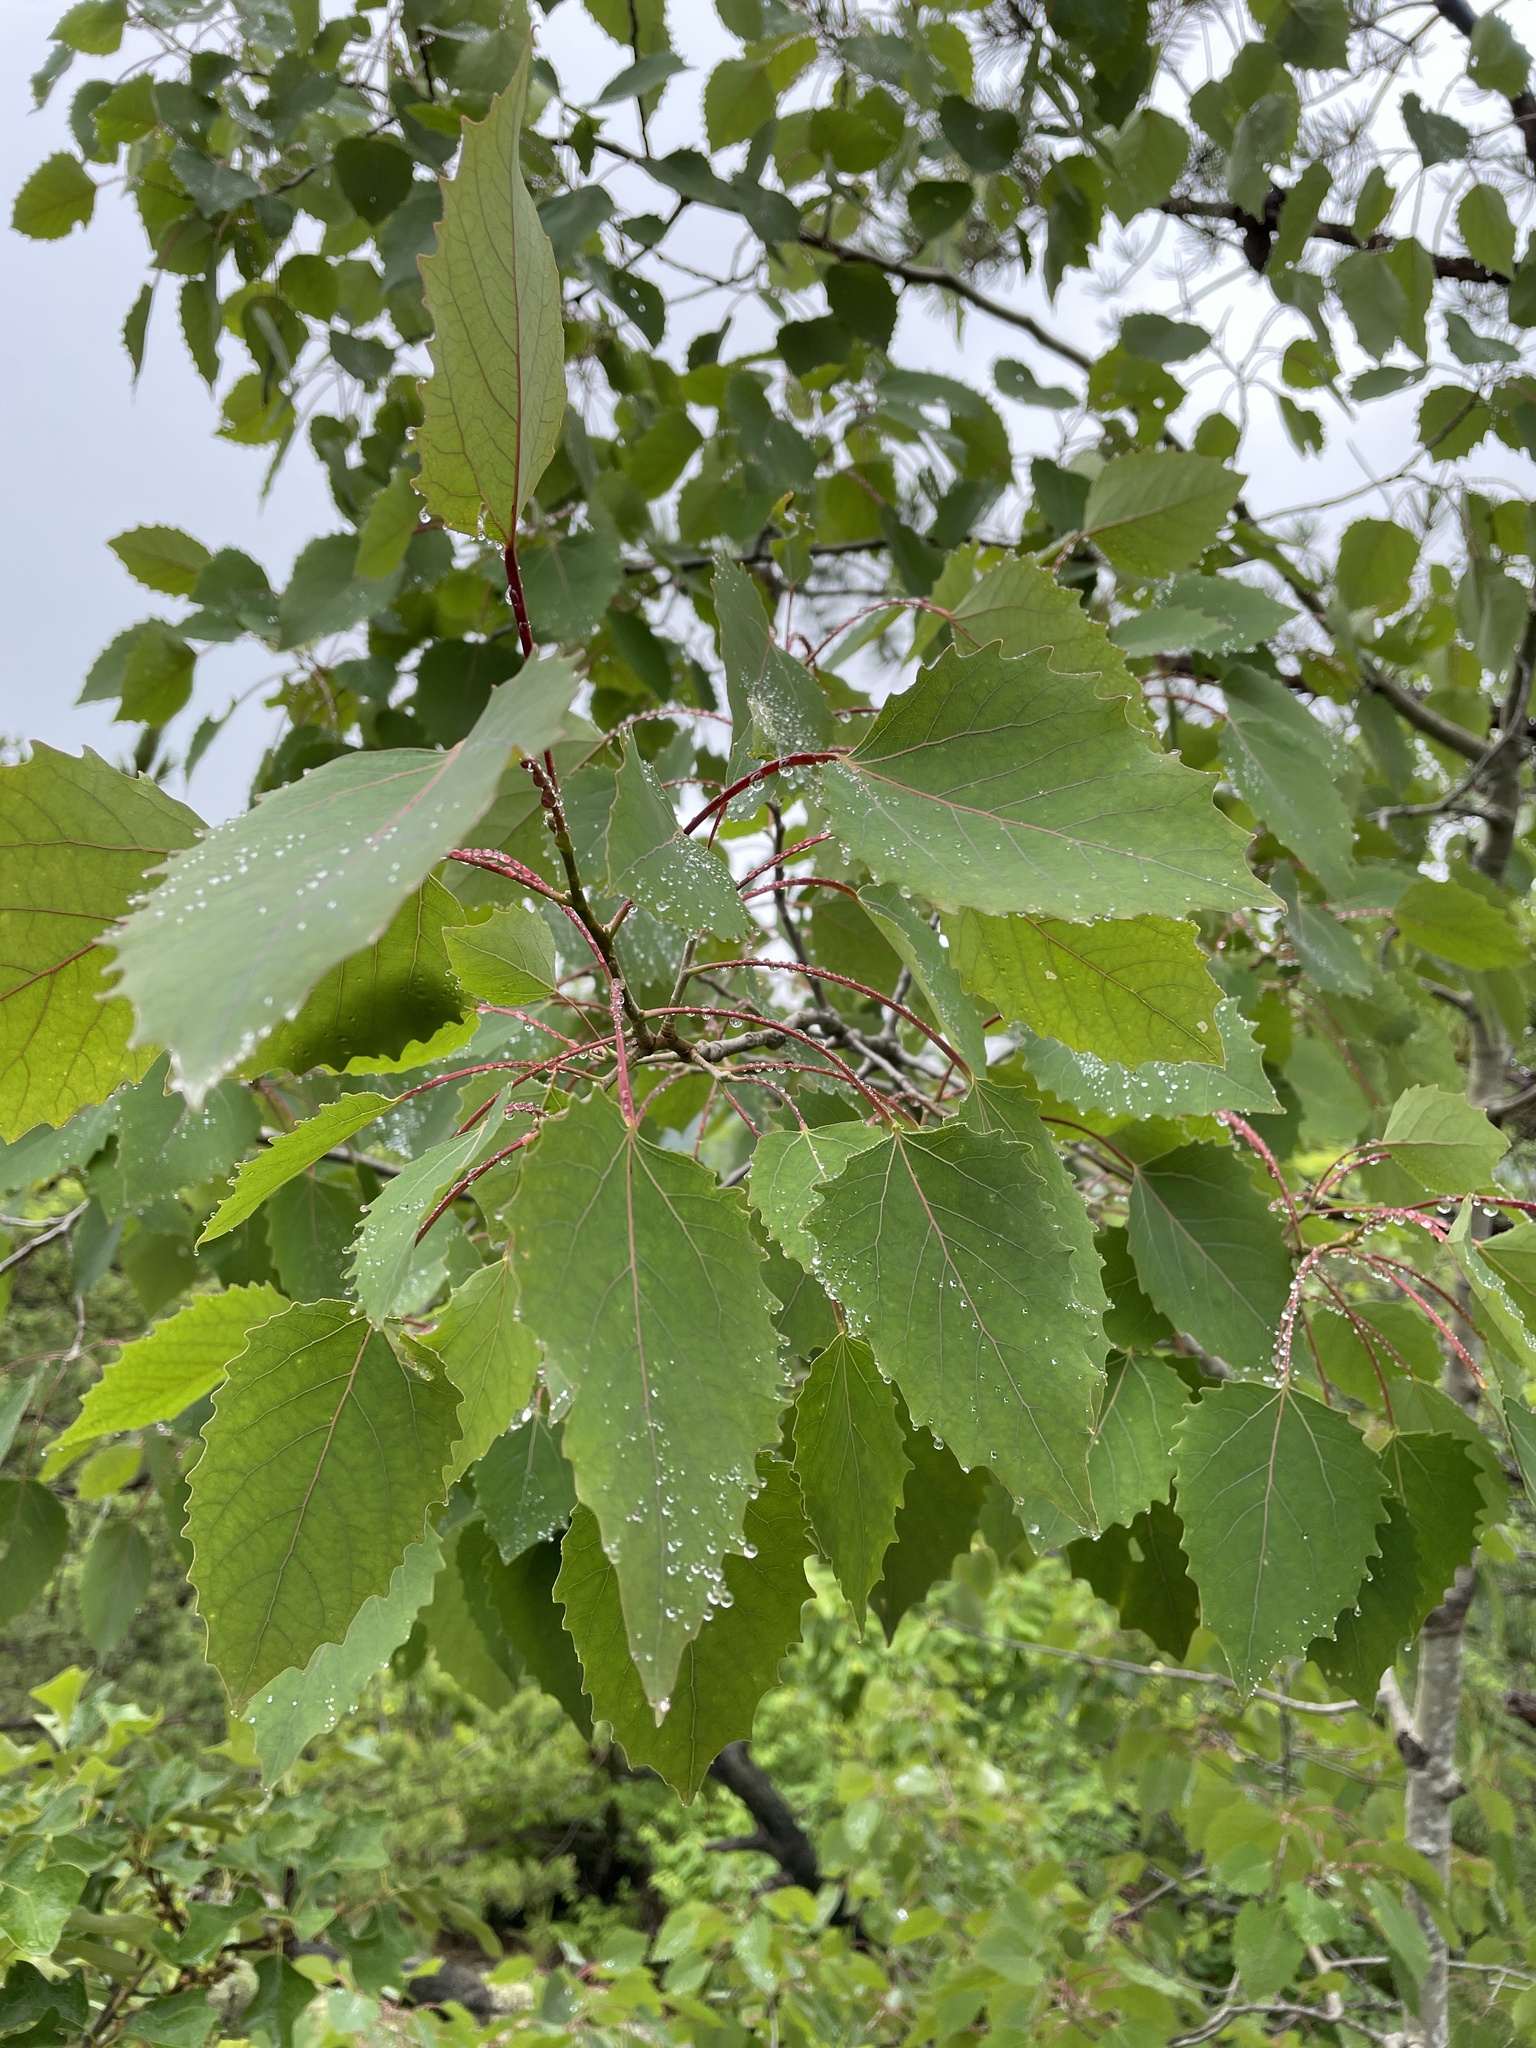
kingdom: Plantae
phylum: Tracheophyta
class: Magnoliopsida
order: Malpighiales
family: Salicaceae
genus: Populus
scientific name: Populus grandidentata
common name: Bigtooth aspen
